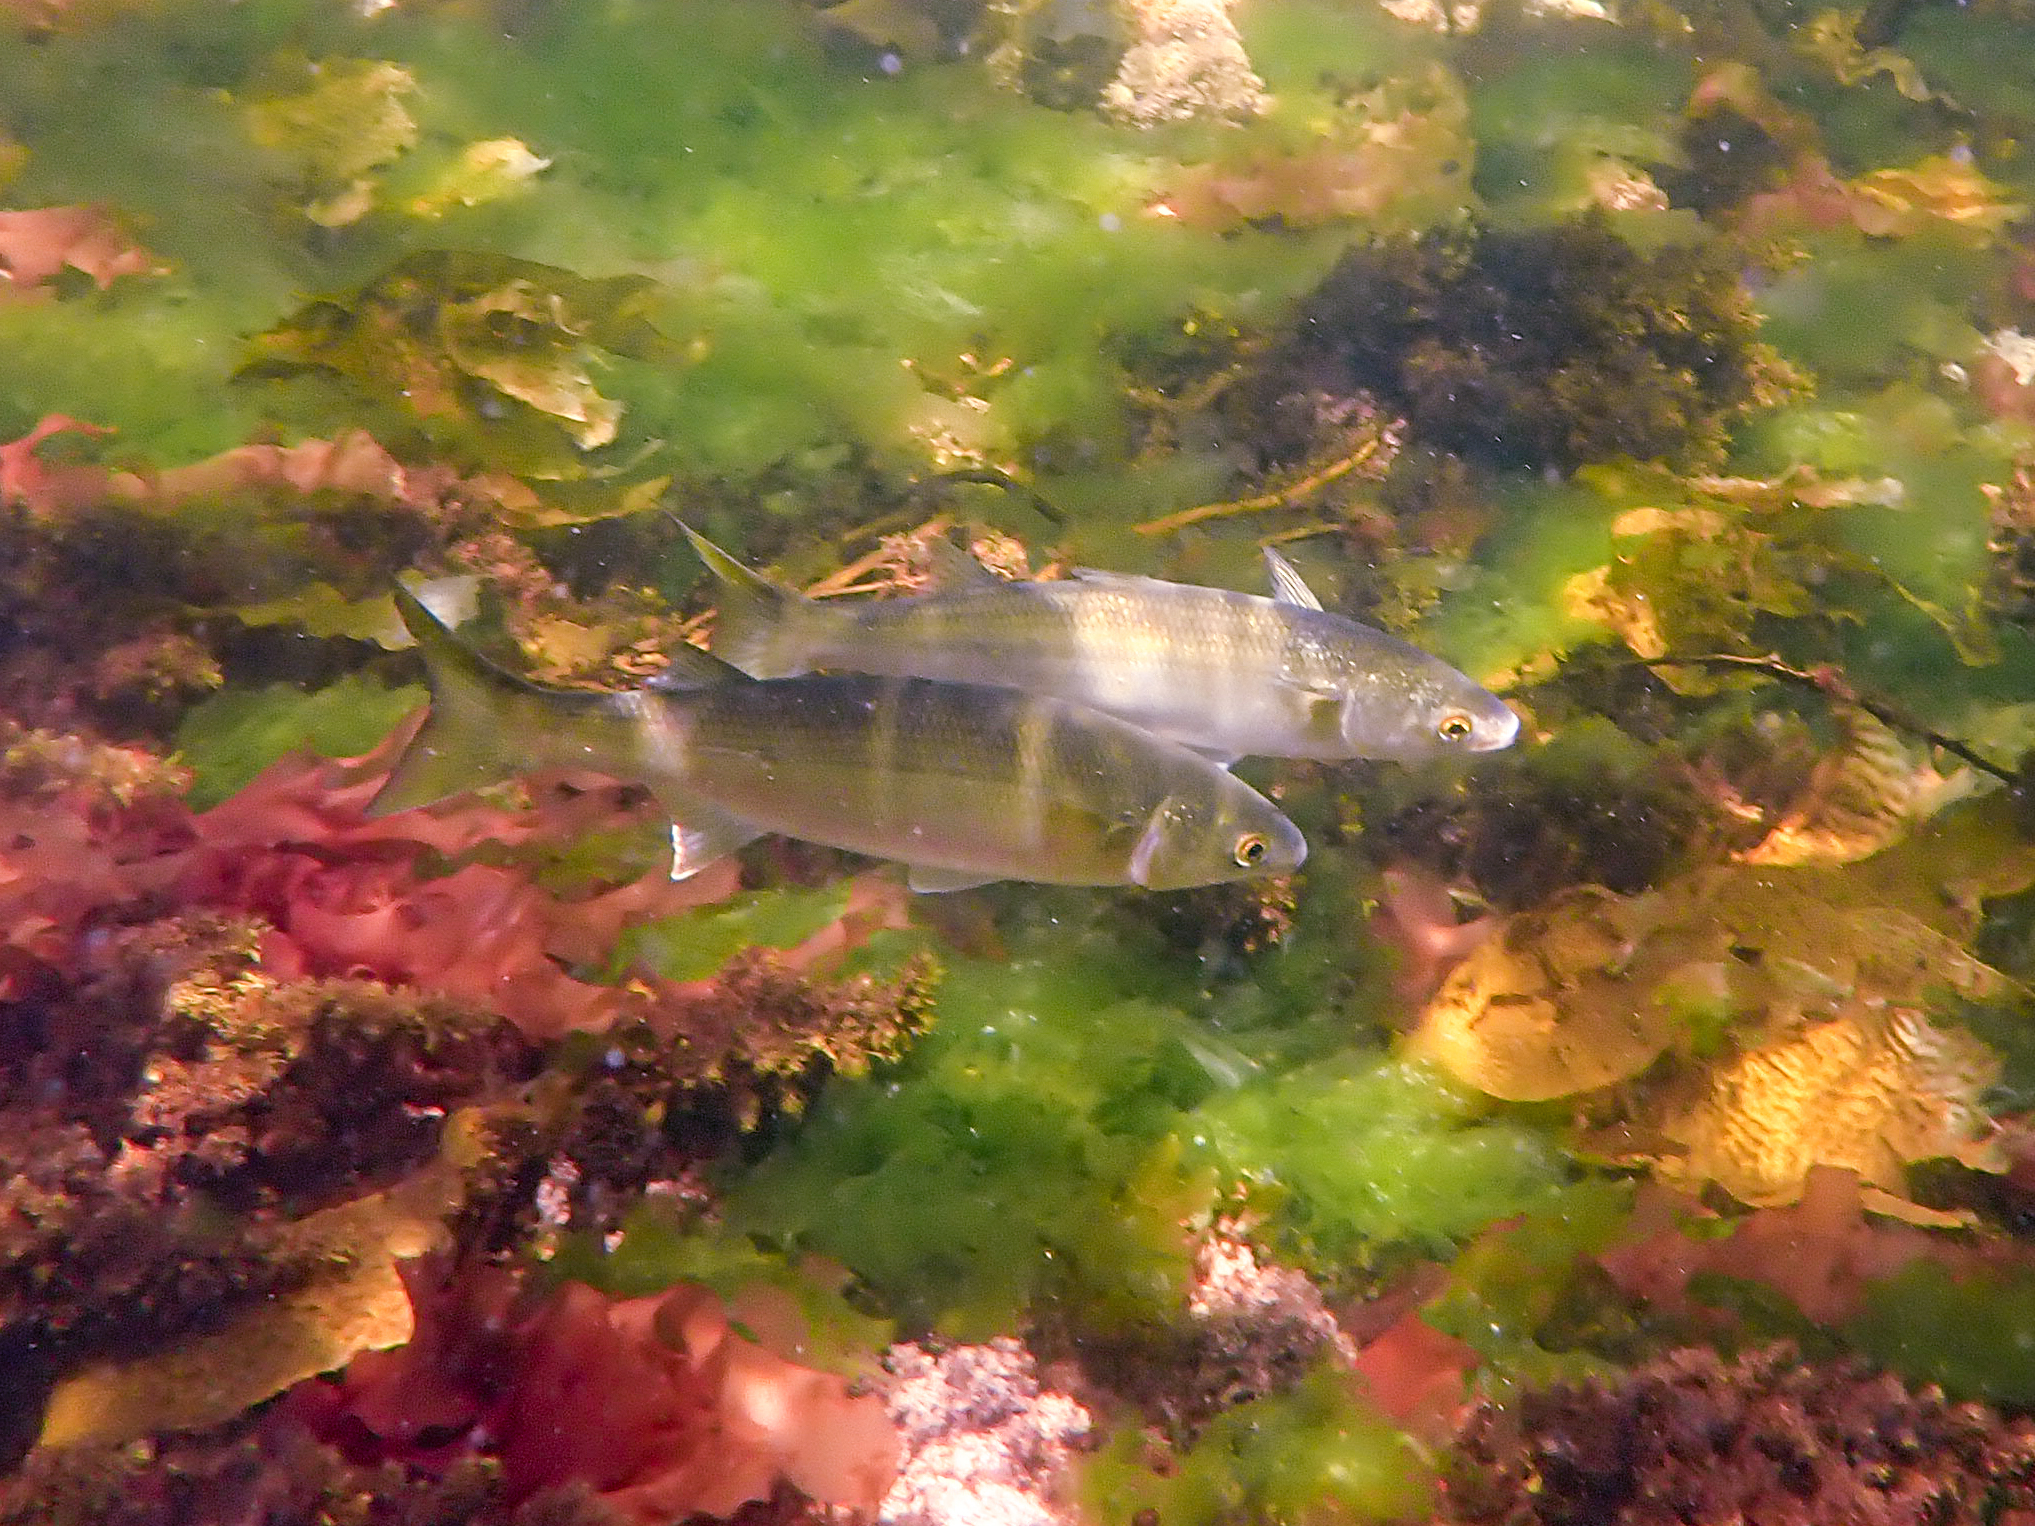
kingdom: Animalia
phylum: Chordata
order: Mugiliformes
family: Mugilidae
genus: Aldrichetta
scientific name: Aldrichetta forsteri
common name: Yellow-eye mullet
